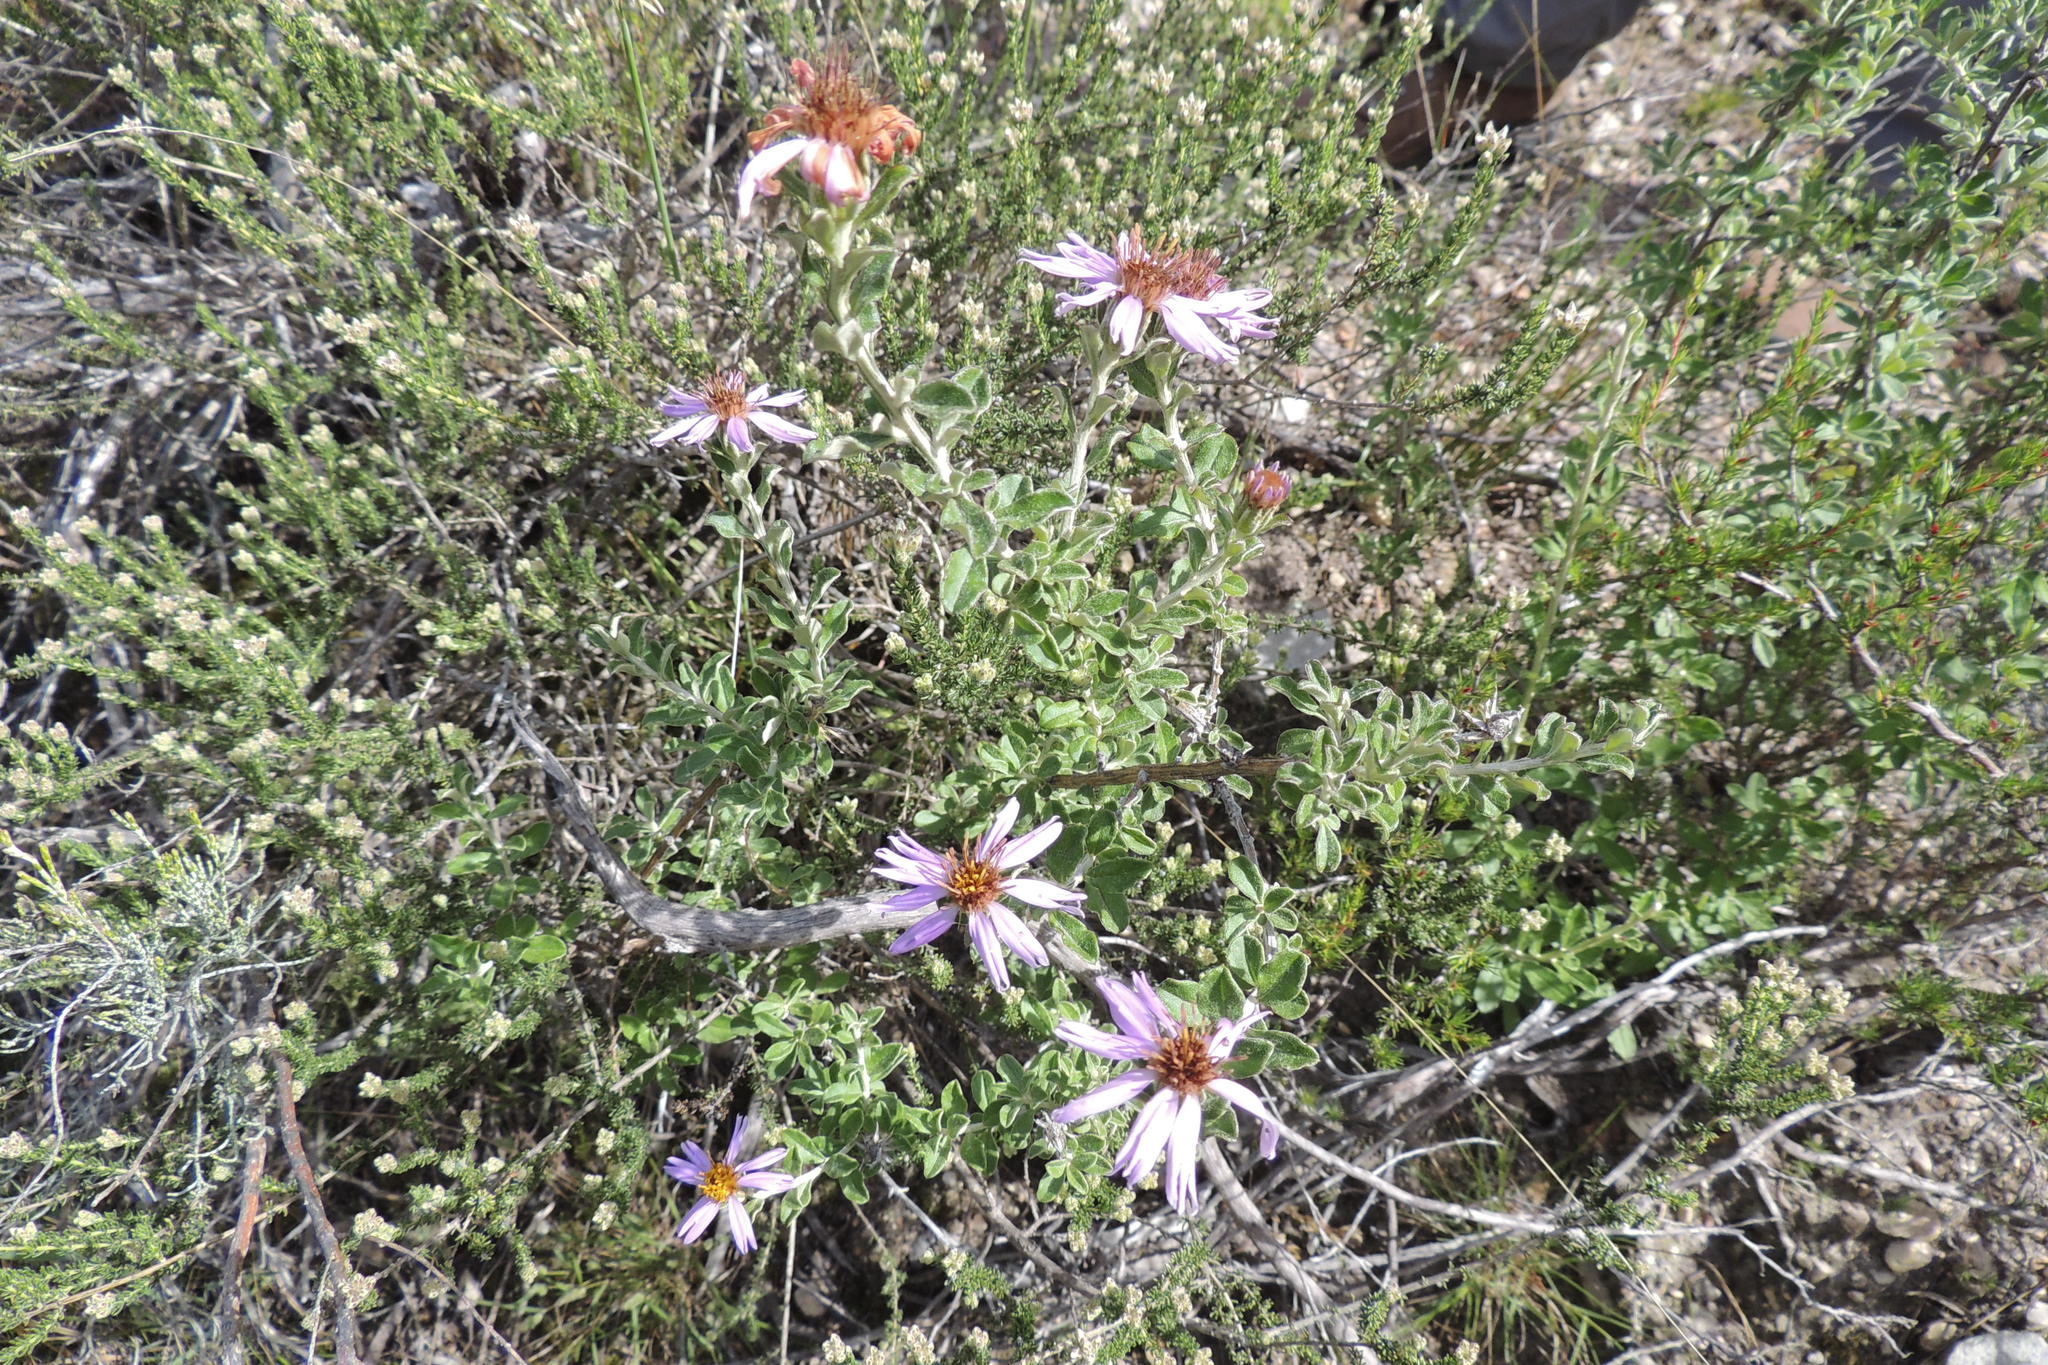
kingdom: Plantae
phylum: Tracheophyta
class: Magnoliopsida
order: Asterales
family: Asteraceae
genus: Printzia
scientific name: Printzia polifolia
